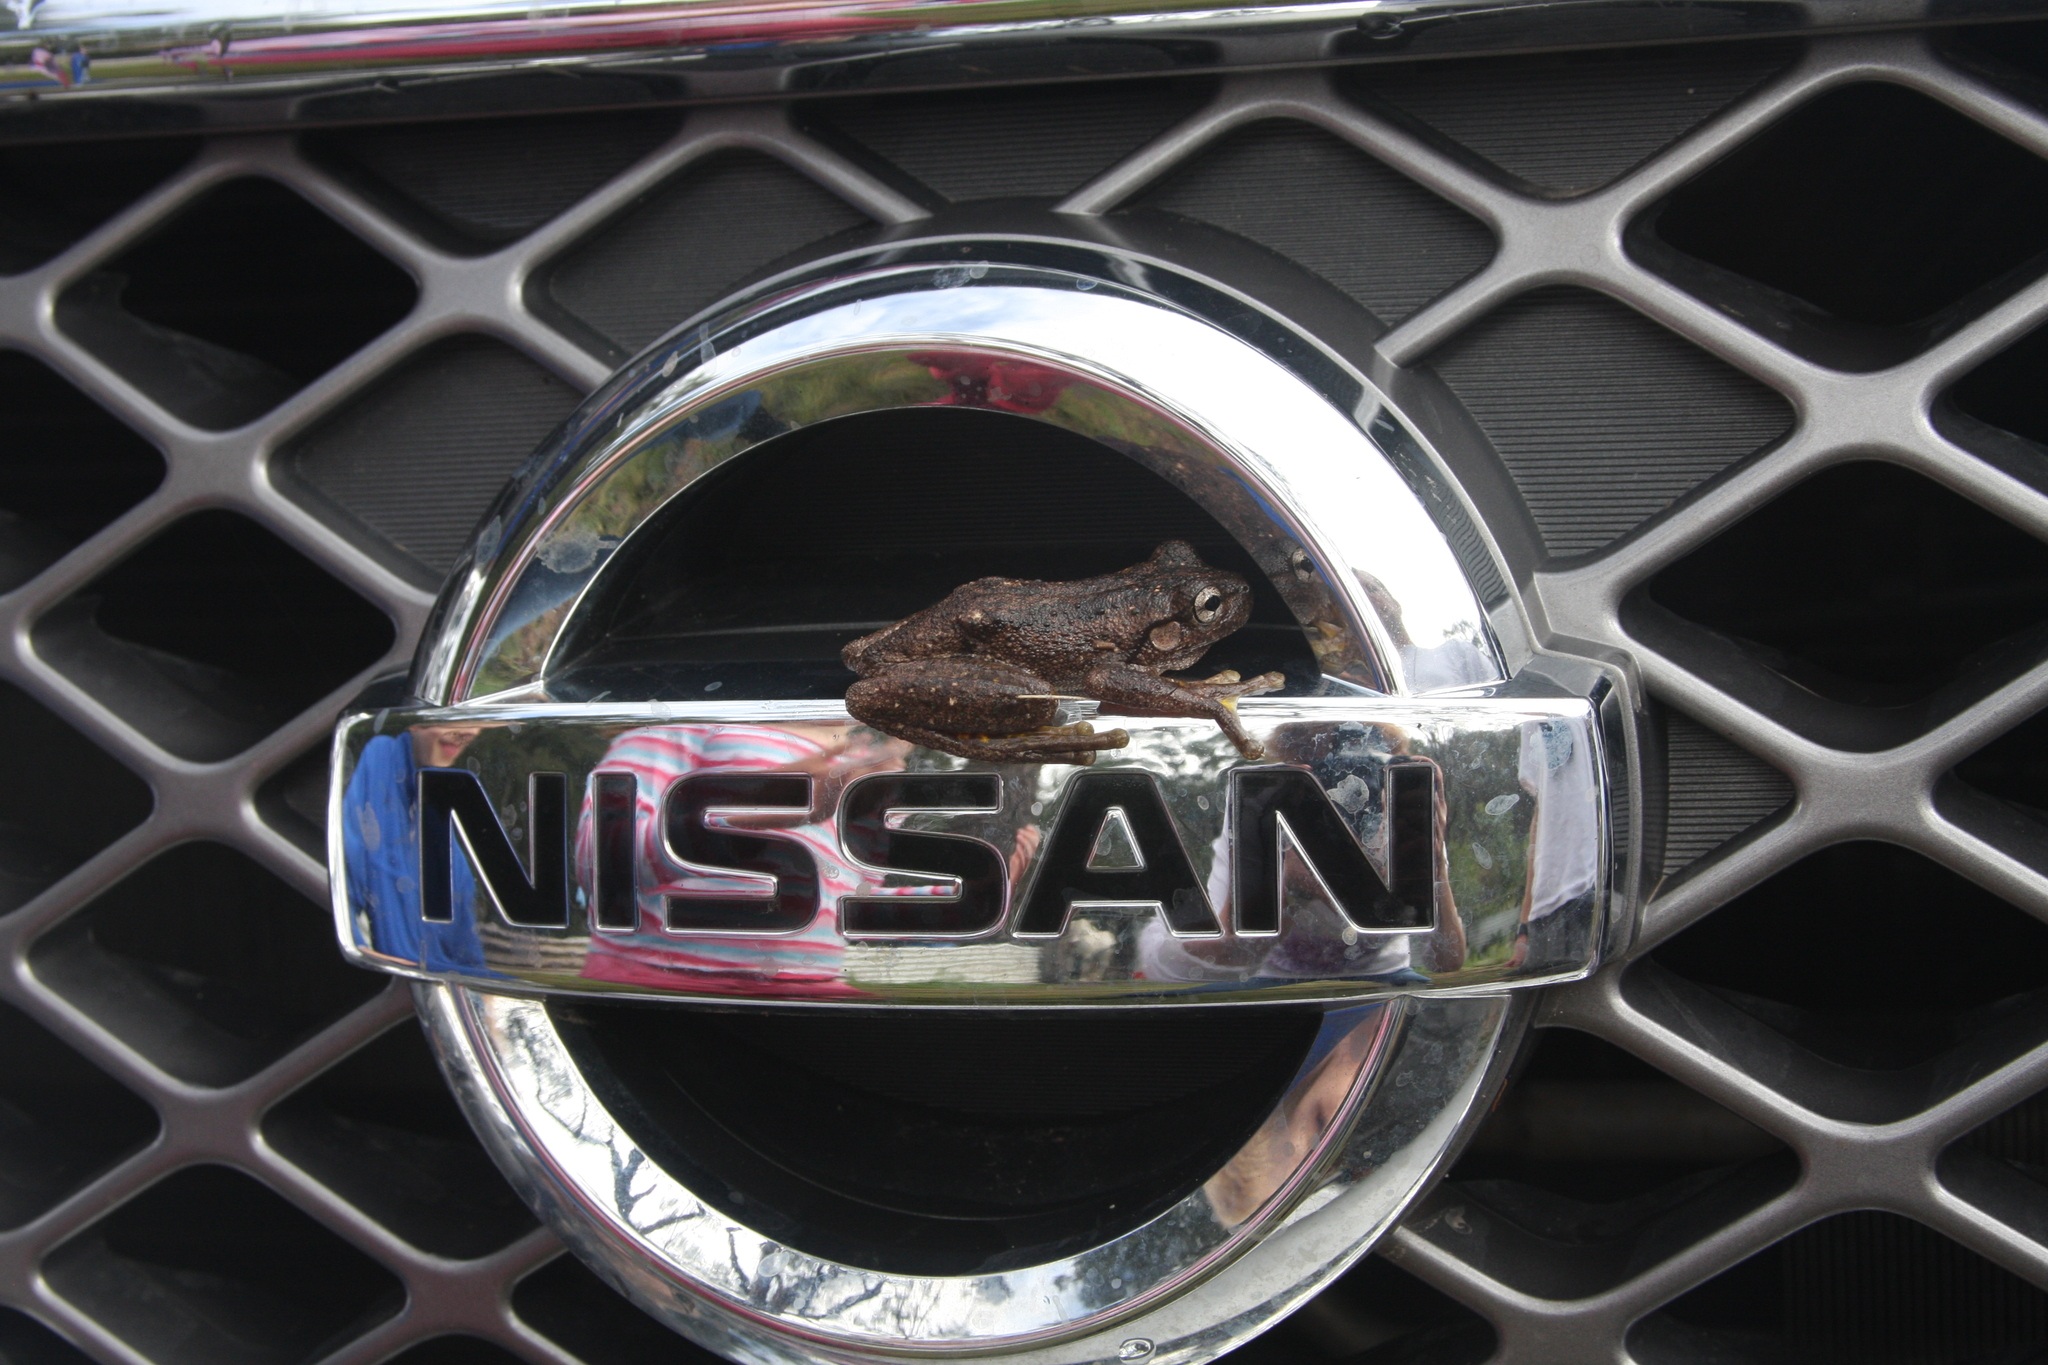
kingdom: Animalia
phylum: Chordata
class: Amphibia
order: Anura
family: Pelodryadidae
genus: Litoria
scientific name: Litoria peronii
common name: Emerald spotted treefrog
